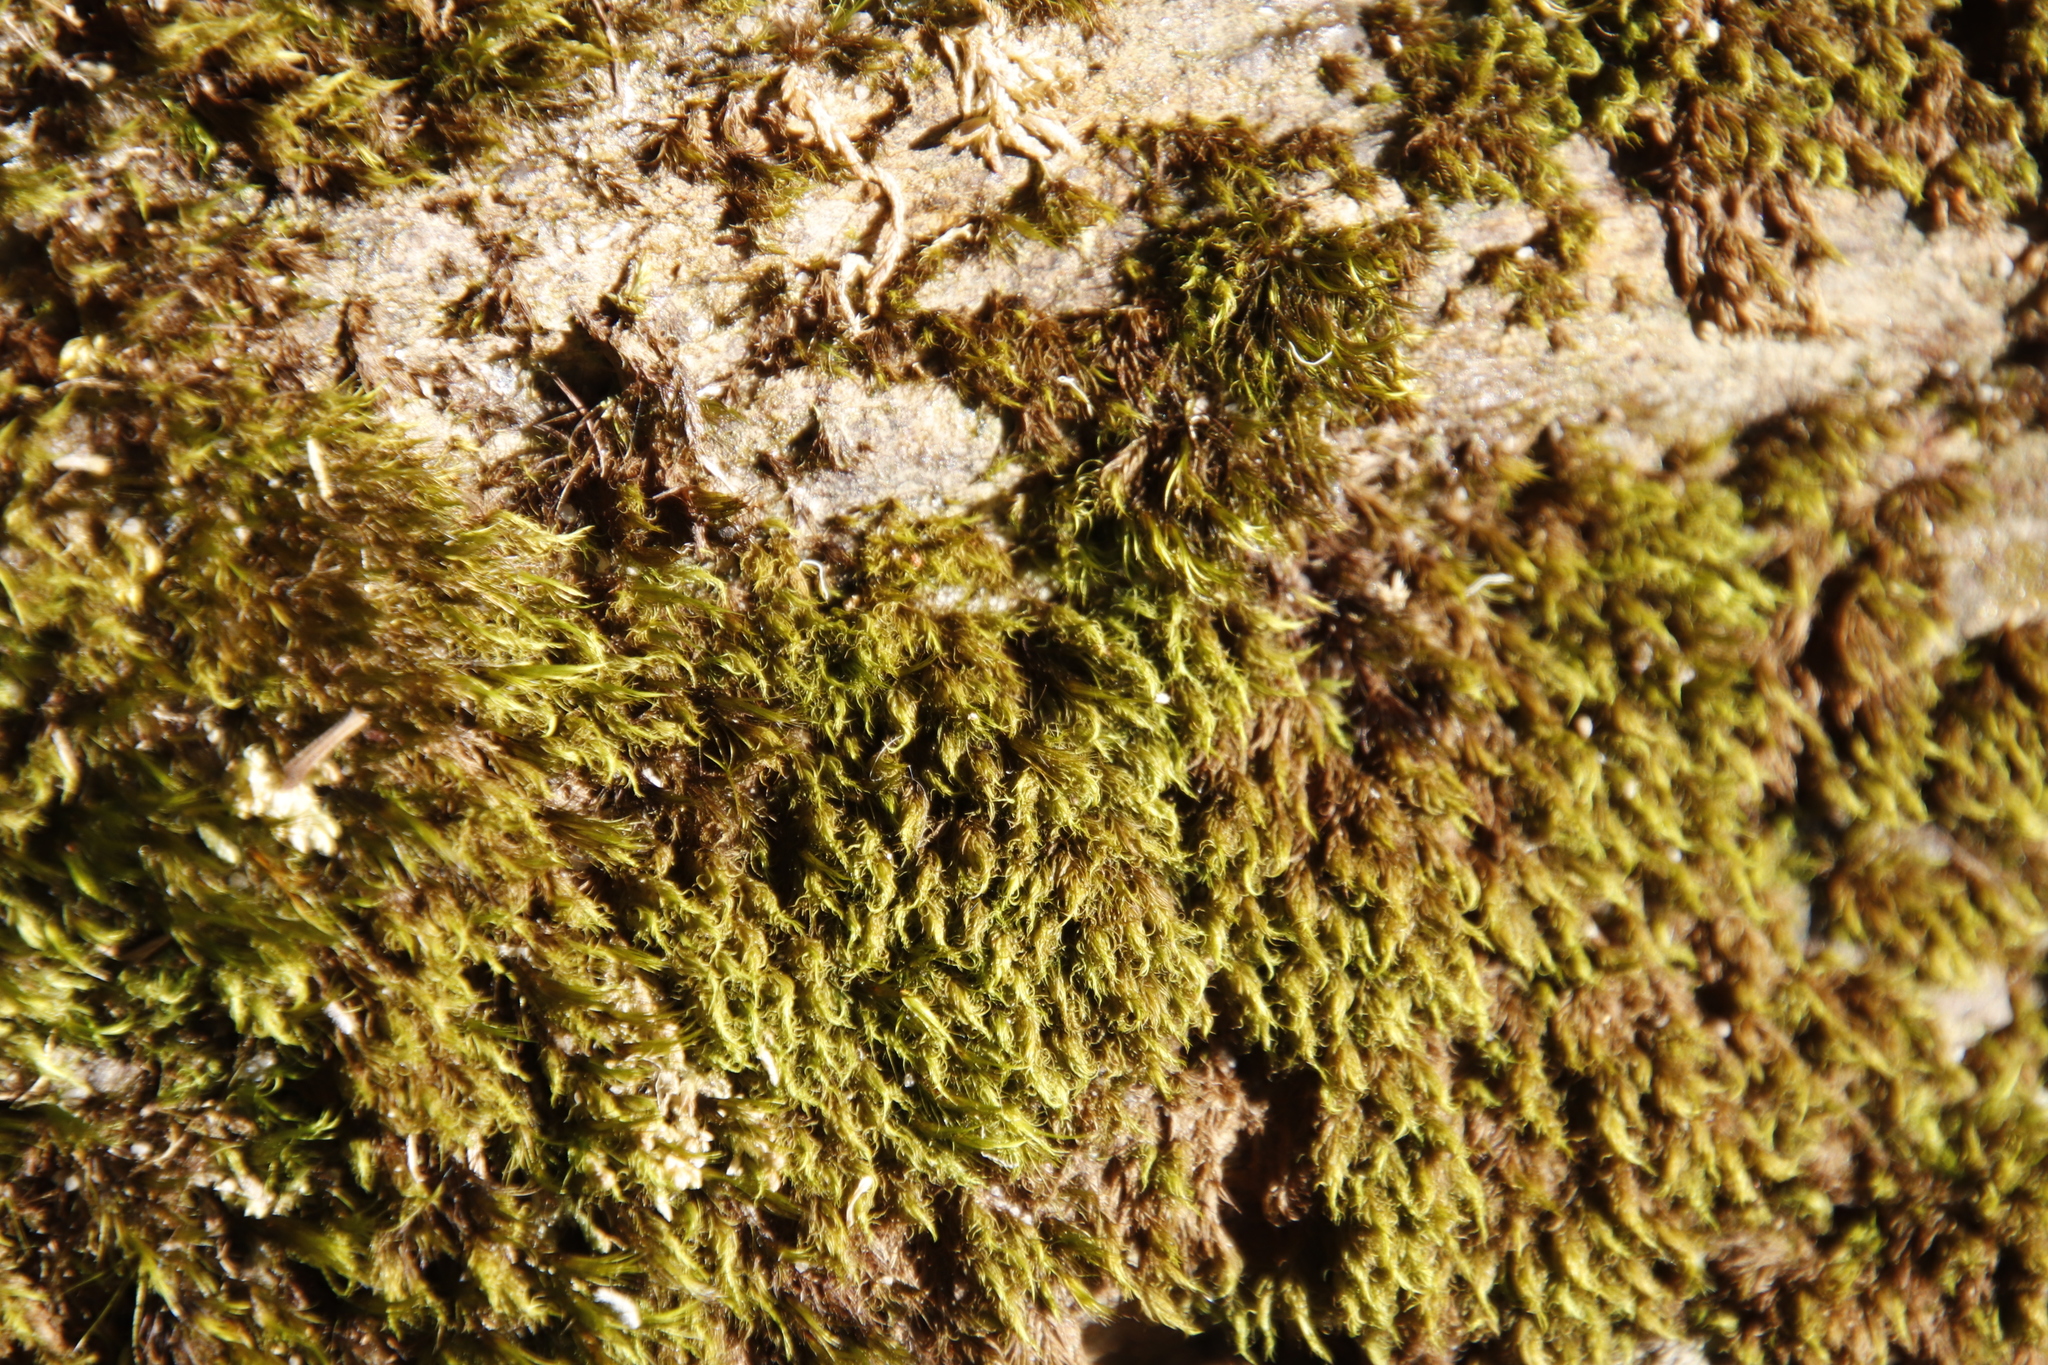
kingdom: Plantae
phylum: Bryophyta
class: Bryopsida
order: Dicranales
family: Dicranaceae
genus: Leucoloma
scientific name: Leucoloma sprengelianum
